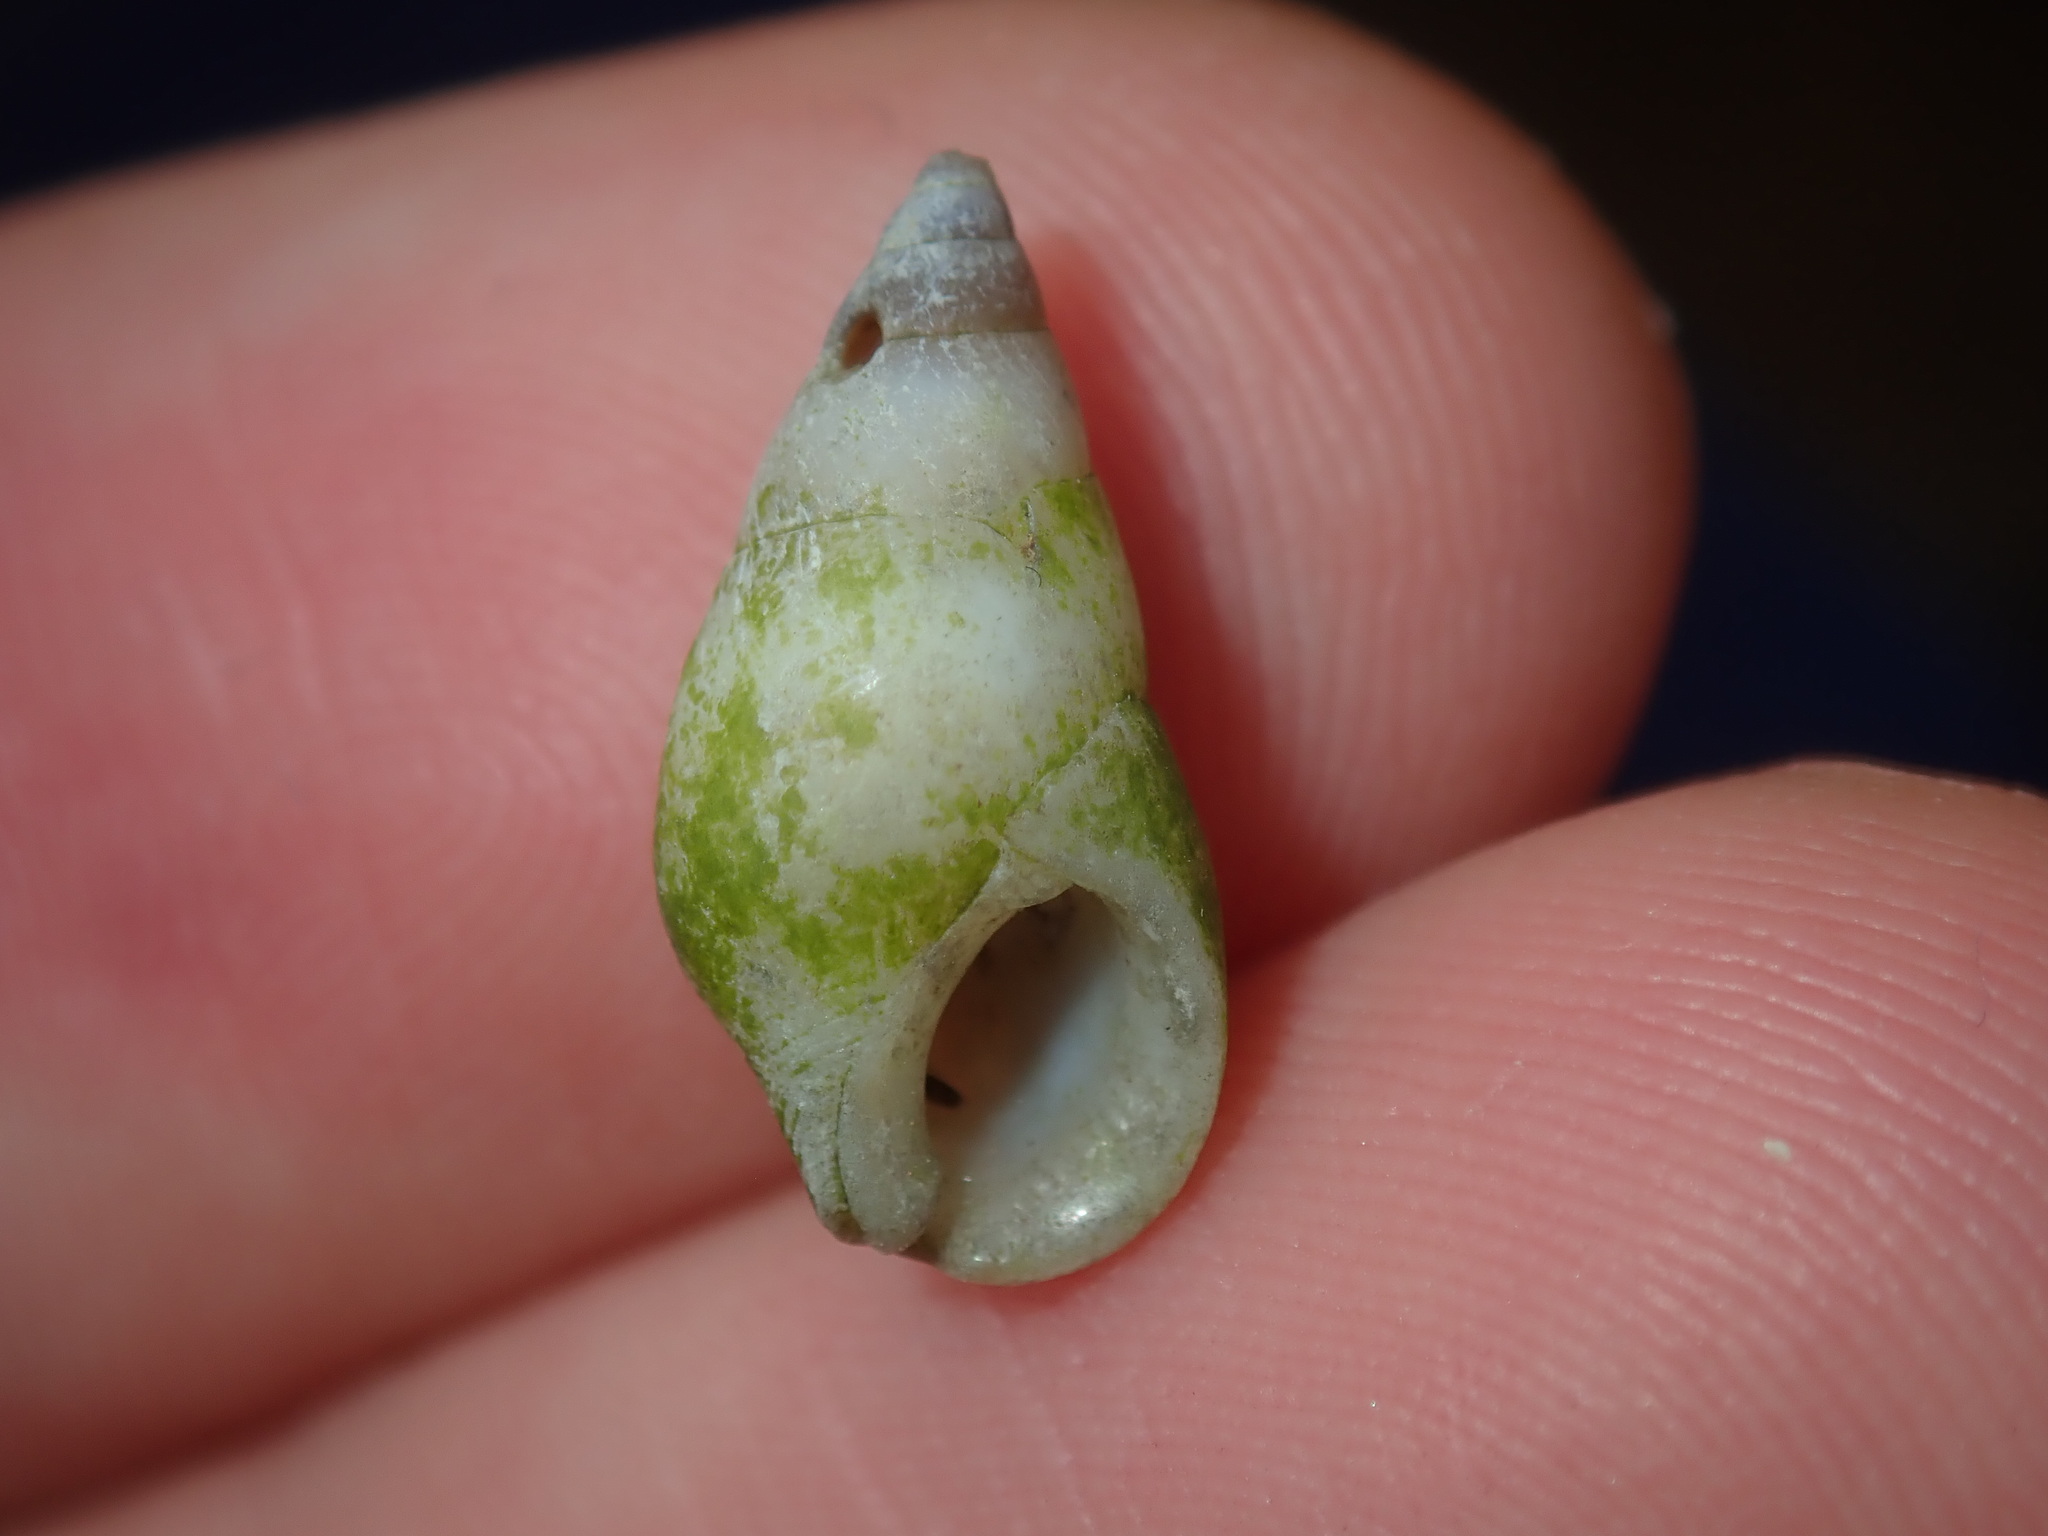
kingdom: Animalia
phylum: Mollusca
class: Gastropoda
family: Planaxidae
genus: Hinea
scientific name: Hinea brasiliana
